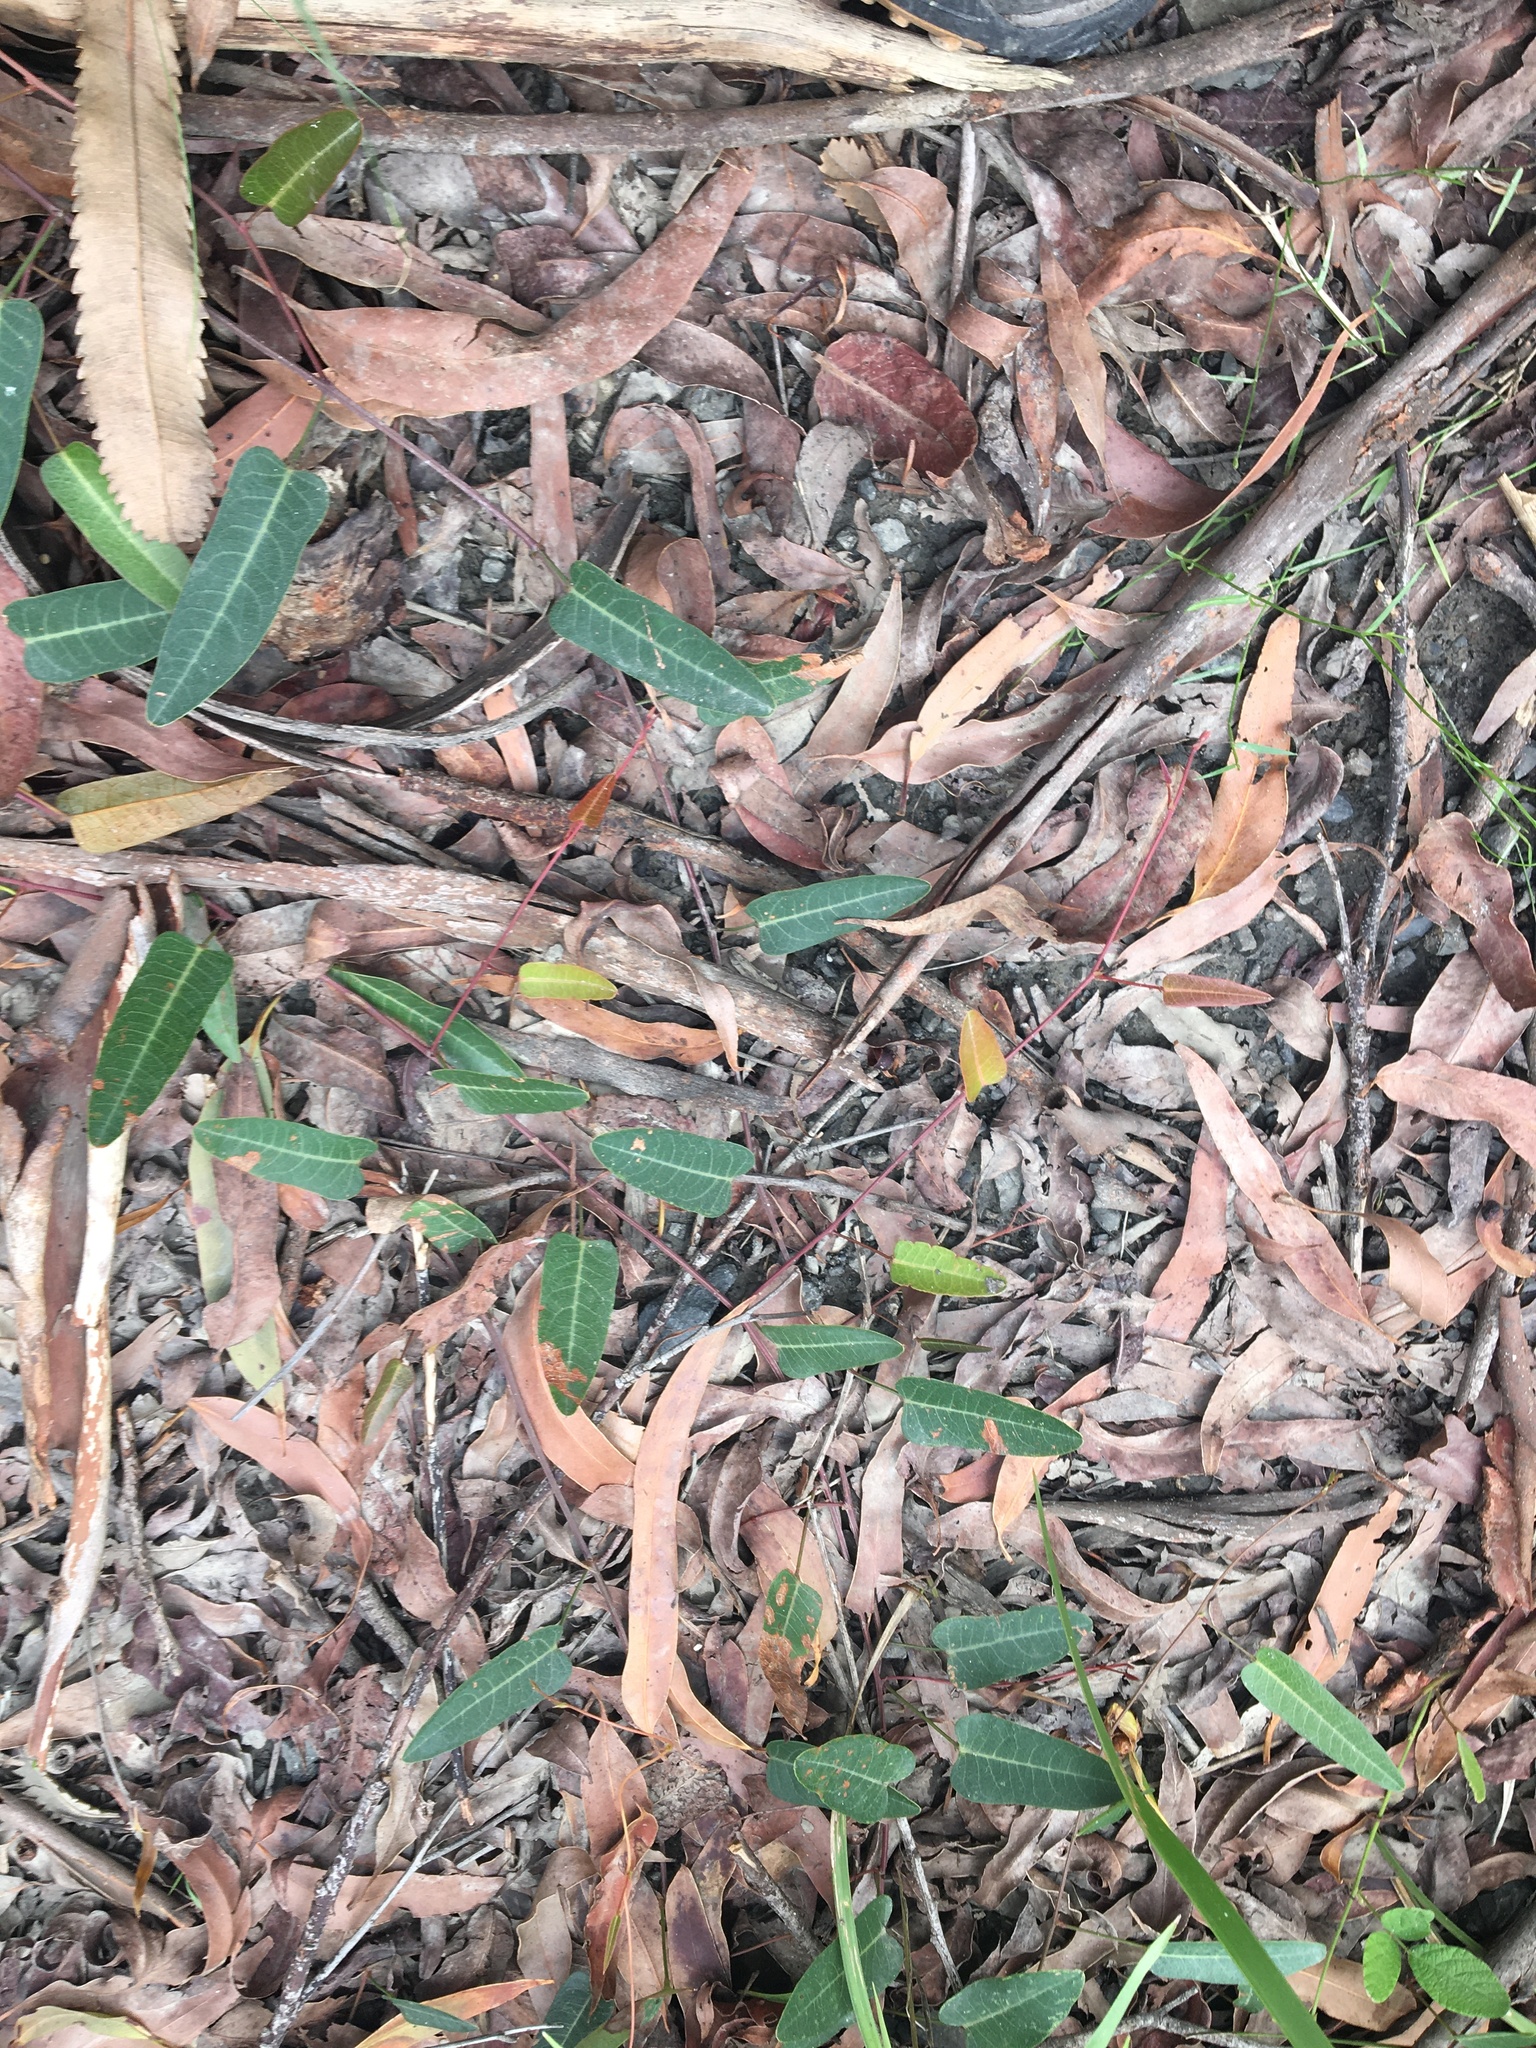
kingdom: Plantae
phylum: Tracheophyta
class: Magnoliopsida
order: Fabales
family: Fabaceae
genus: Hardenbergia
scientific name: Hardenbergia violacea
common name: Coral-pea
